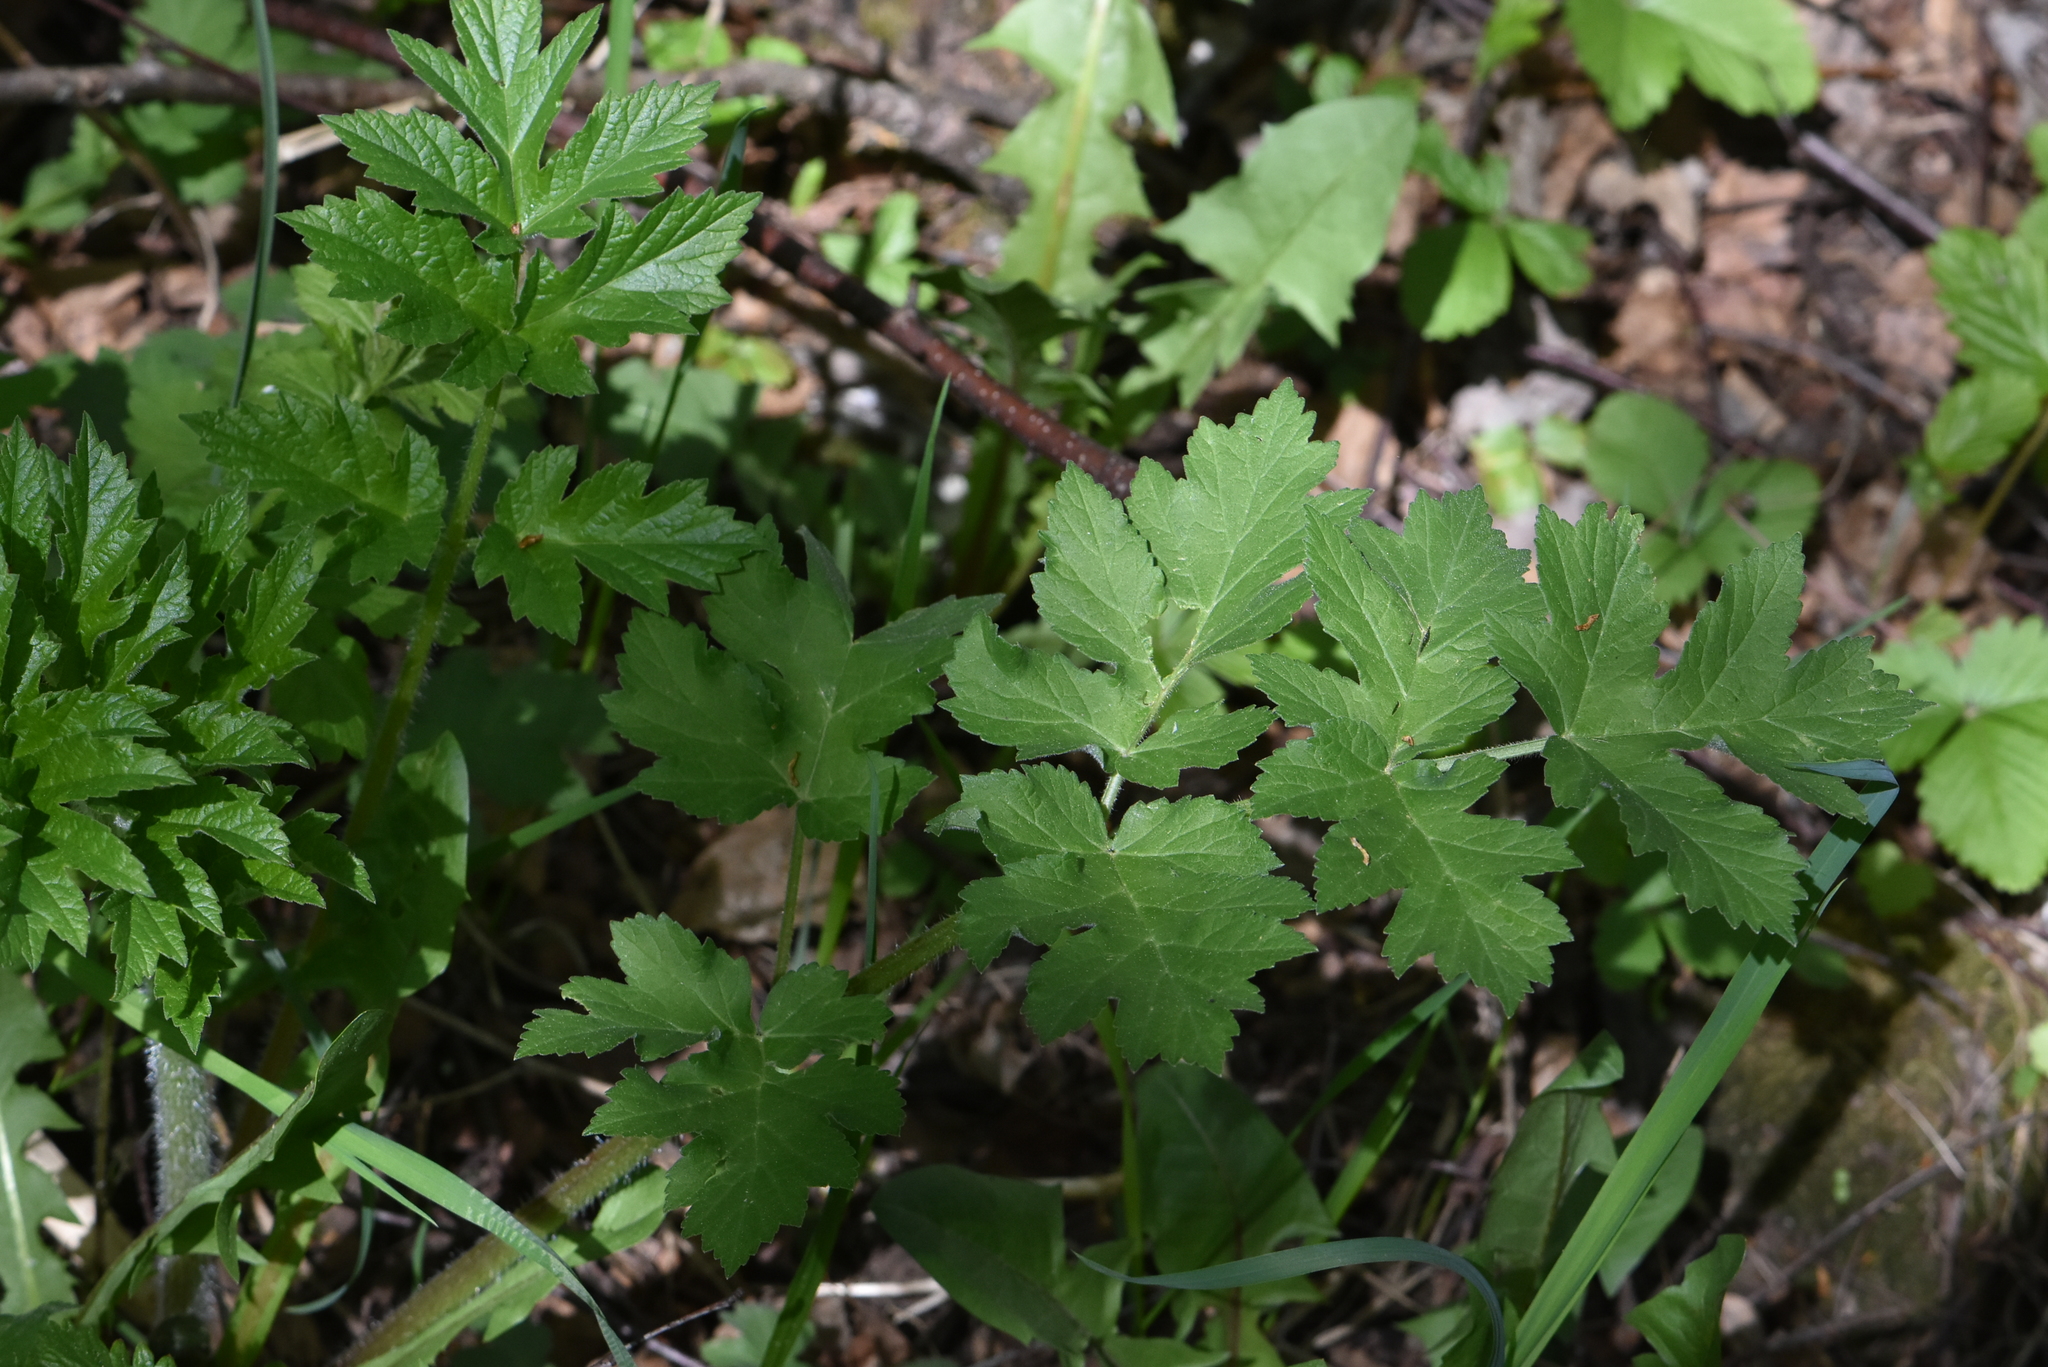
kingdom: Plantae
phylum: Tracheophyta
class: Magnoliopsida
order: Apiales
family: Apiaceae
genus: Heracleum
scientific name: Heracleum sphondylium
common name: Hogweed
